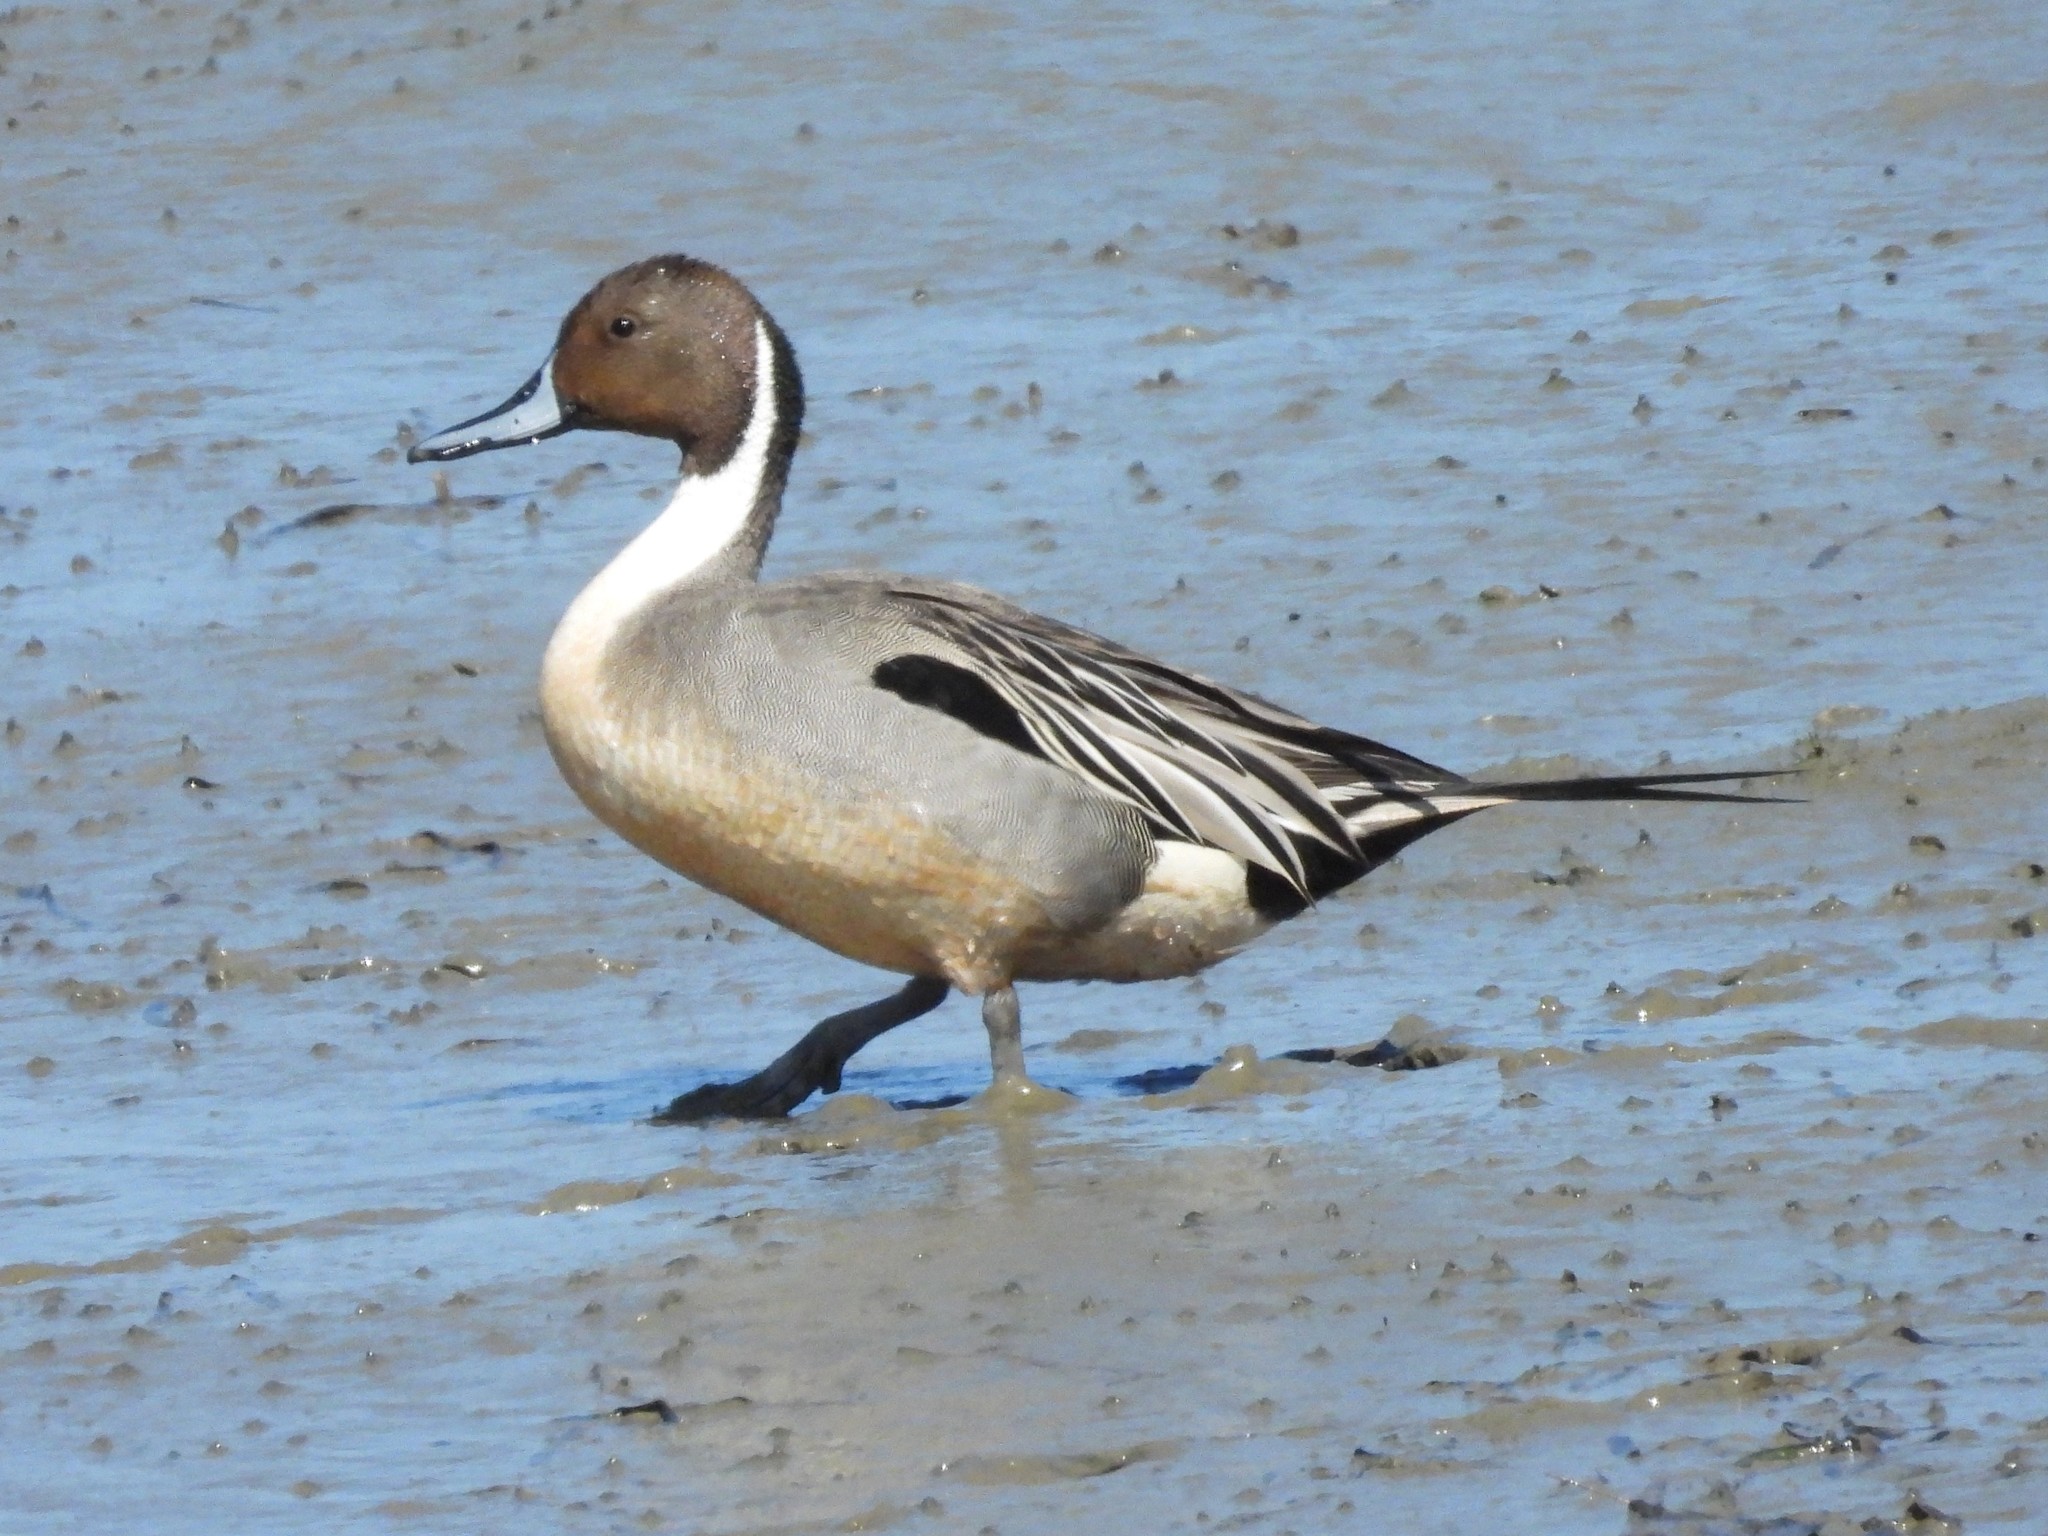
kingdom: Animalia
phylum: Chordata
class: Aves
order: Anseriformes
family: Anatidae
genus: Anas
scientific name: Anas acuta
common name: Northern pintail
